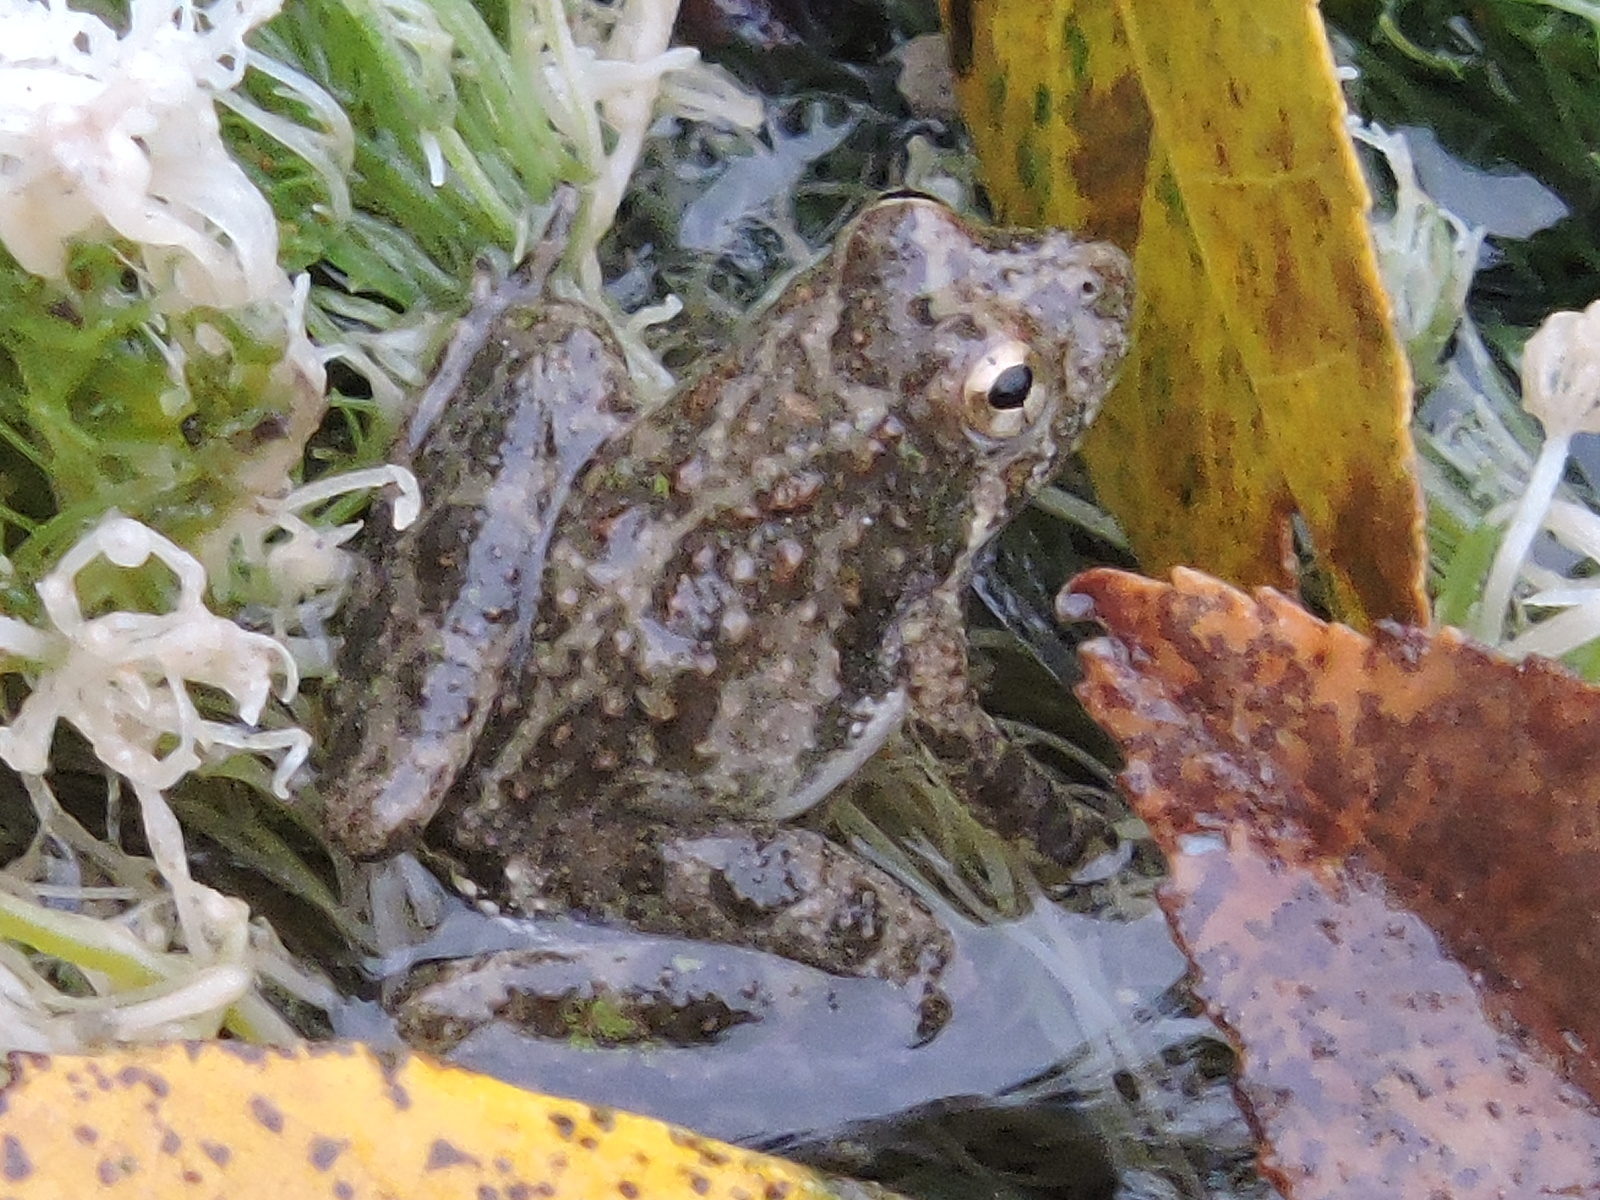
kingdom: Animalia
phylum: Chordata
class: Amphibia
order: Anura
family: Hylidae
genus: Acris
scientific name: Acris blanchardi
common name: Blanchard's cricket frog
